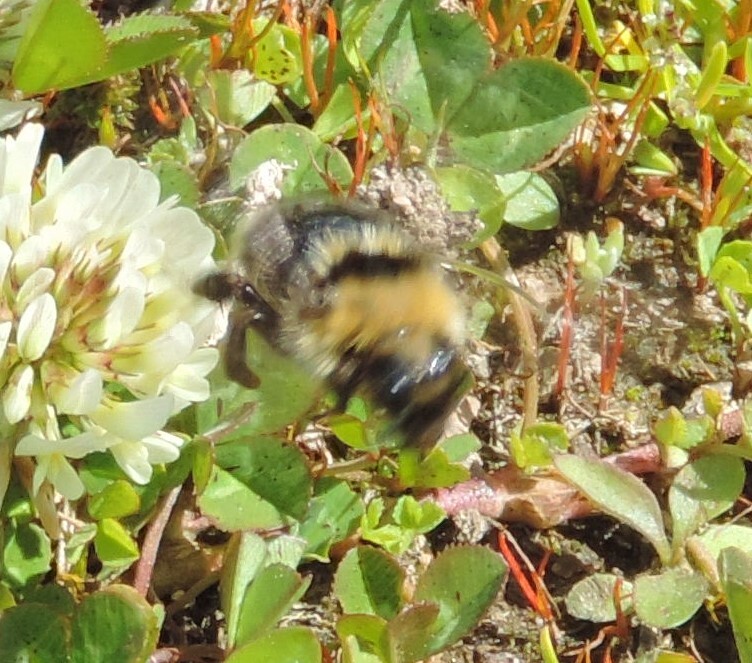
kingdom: Animalia
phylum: Arthropoda
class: Insecta
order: Hymenoptera
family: Apidae
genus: Bombus
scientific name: Bombus insularis
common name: Indiscriminate cuckoo bumble bee
